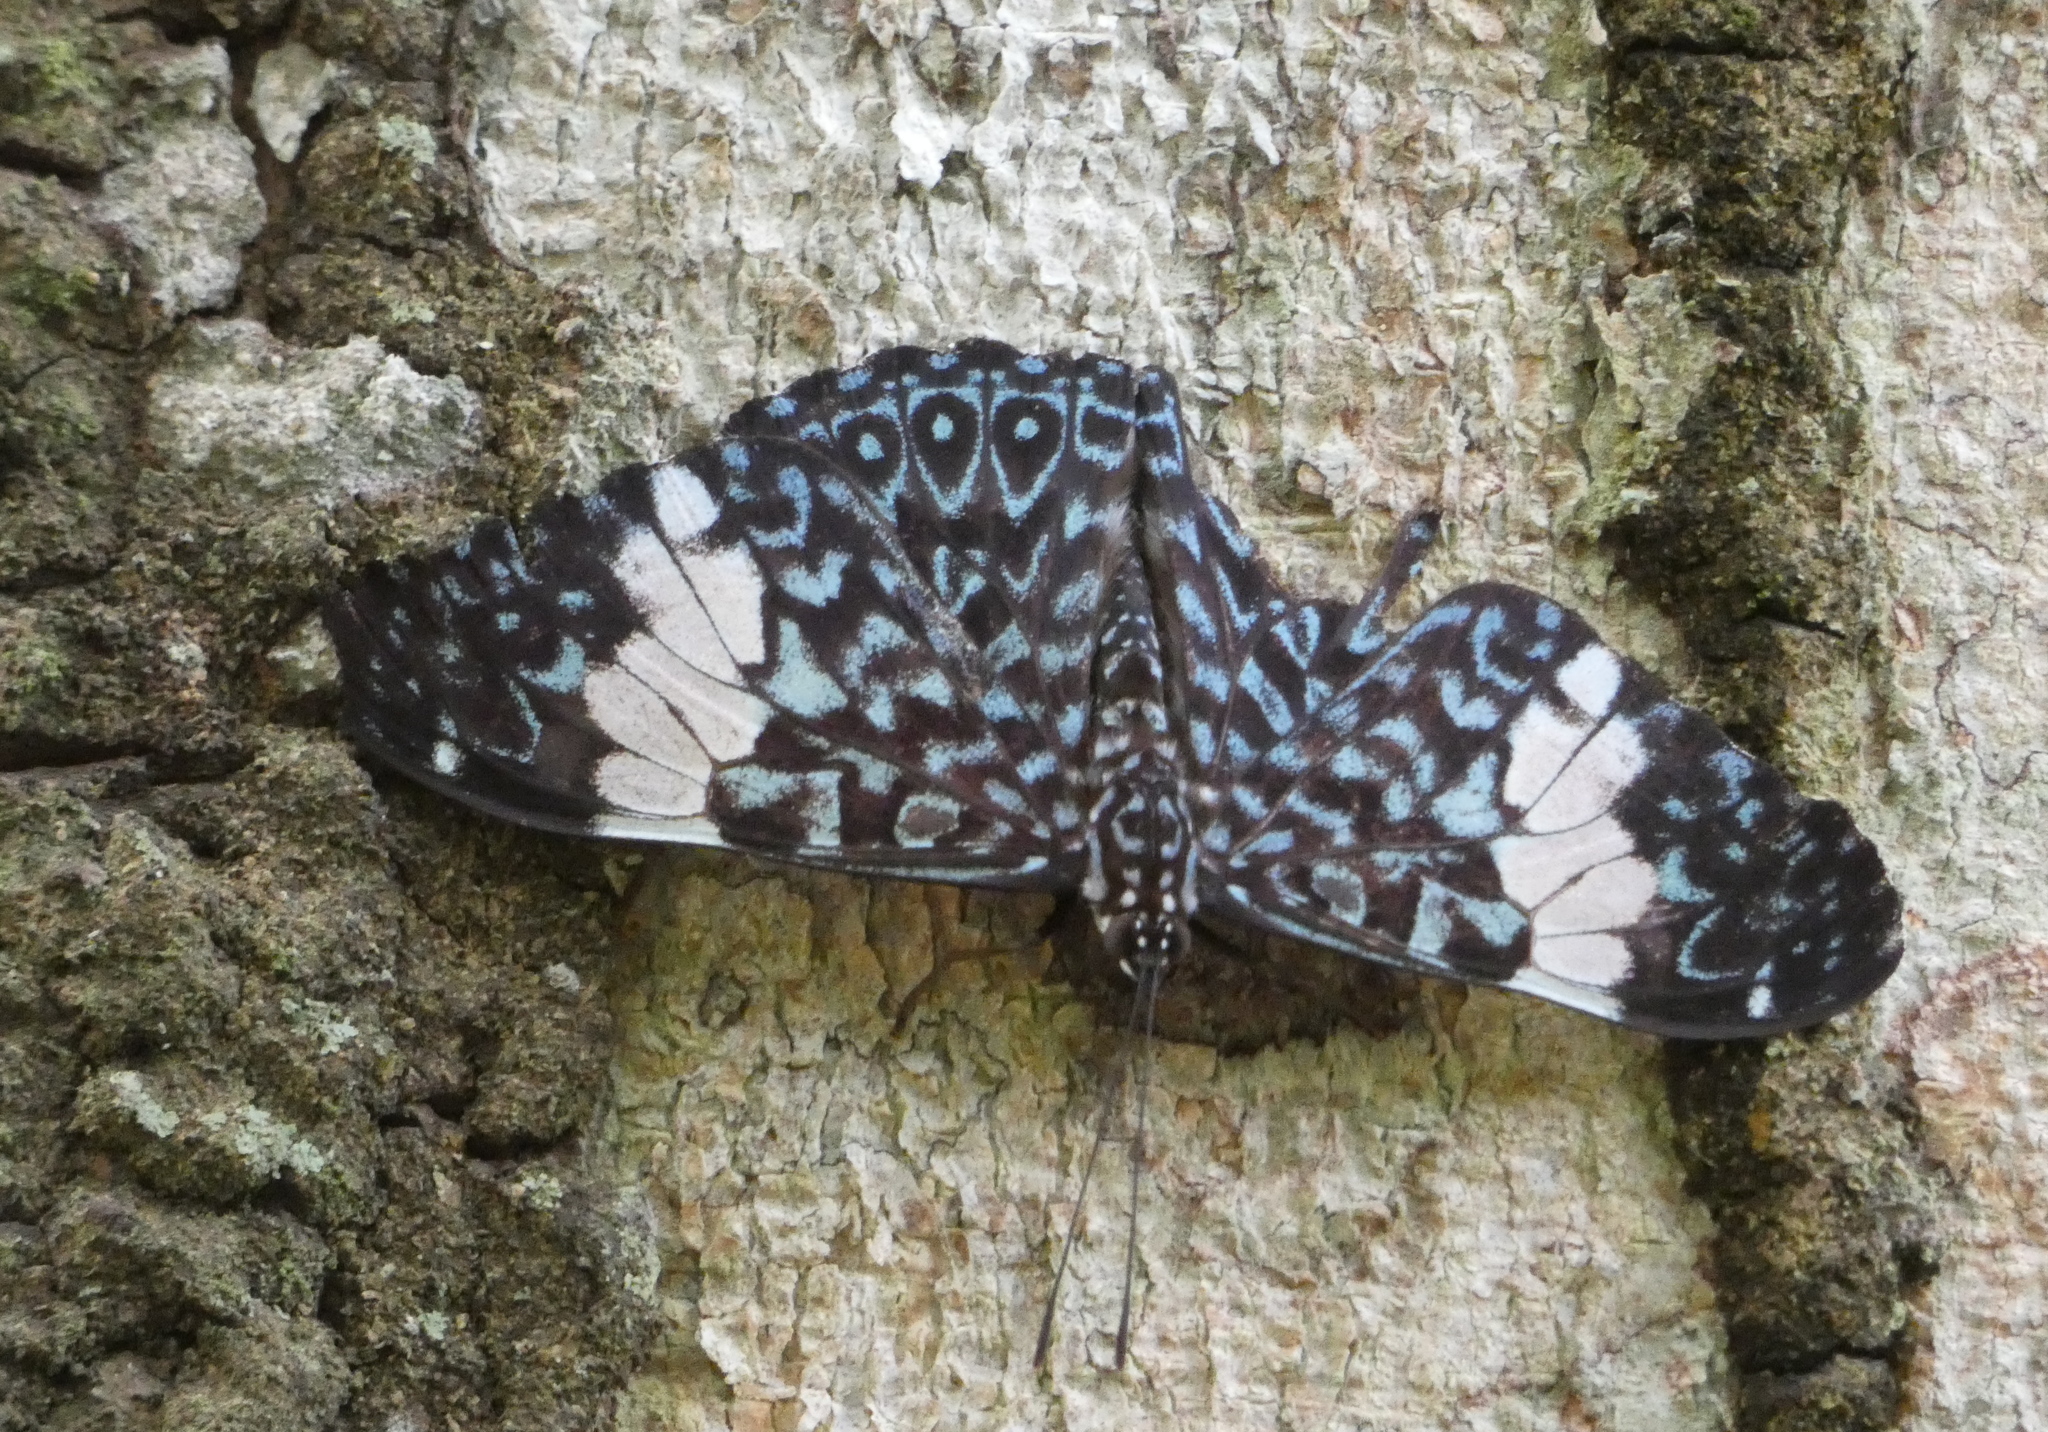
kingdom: Animalia
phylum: Arthropoda
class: Insecta
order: Lepidoptera
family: Nymphalidae
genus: Hamadryas
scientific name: Hamadryas amphinome
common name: Red cracker
